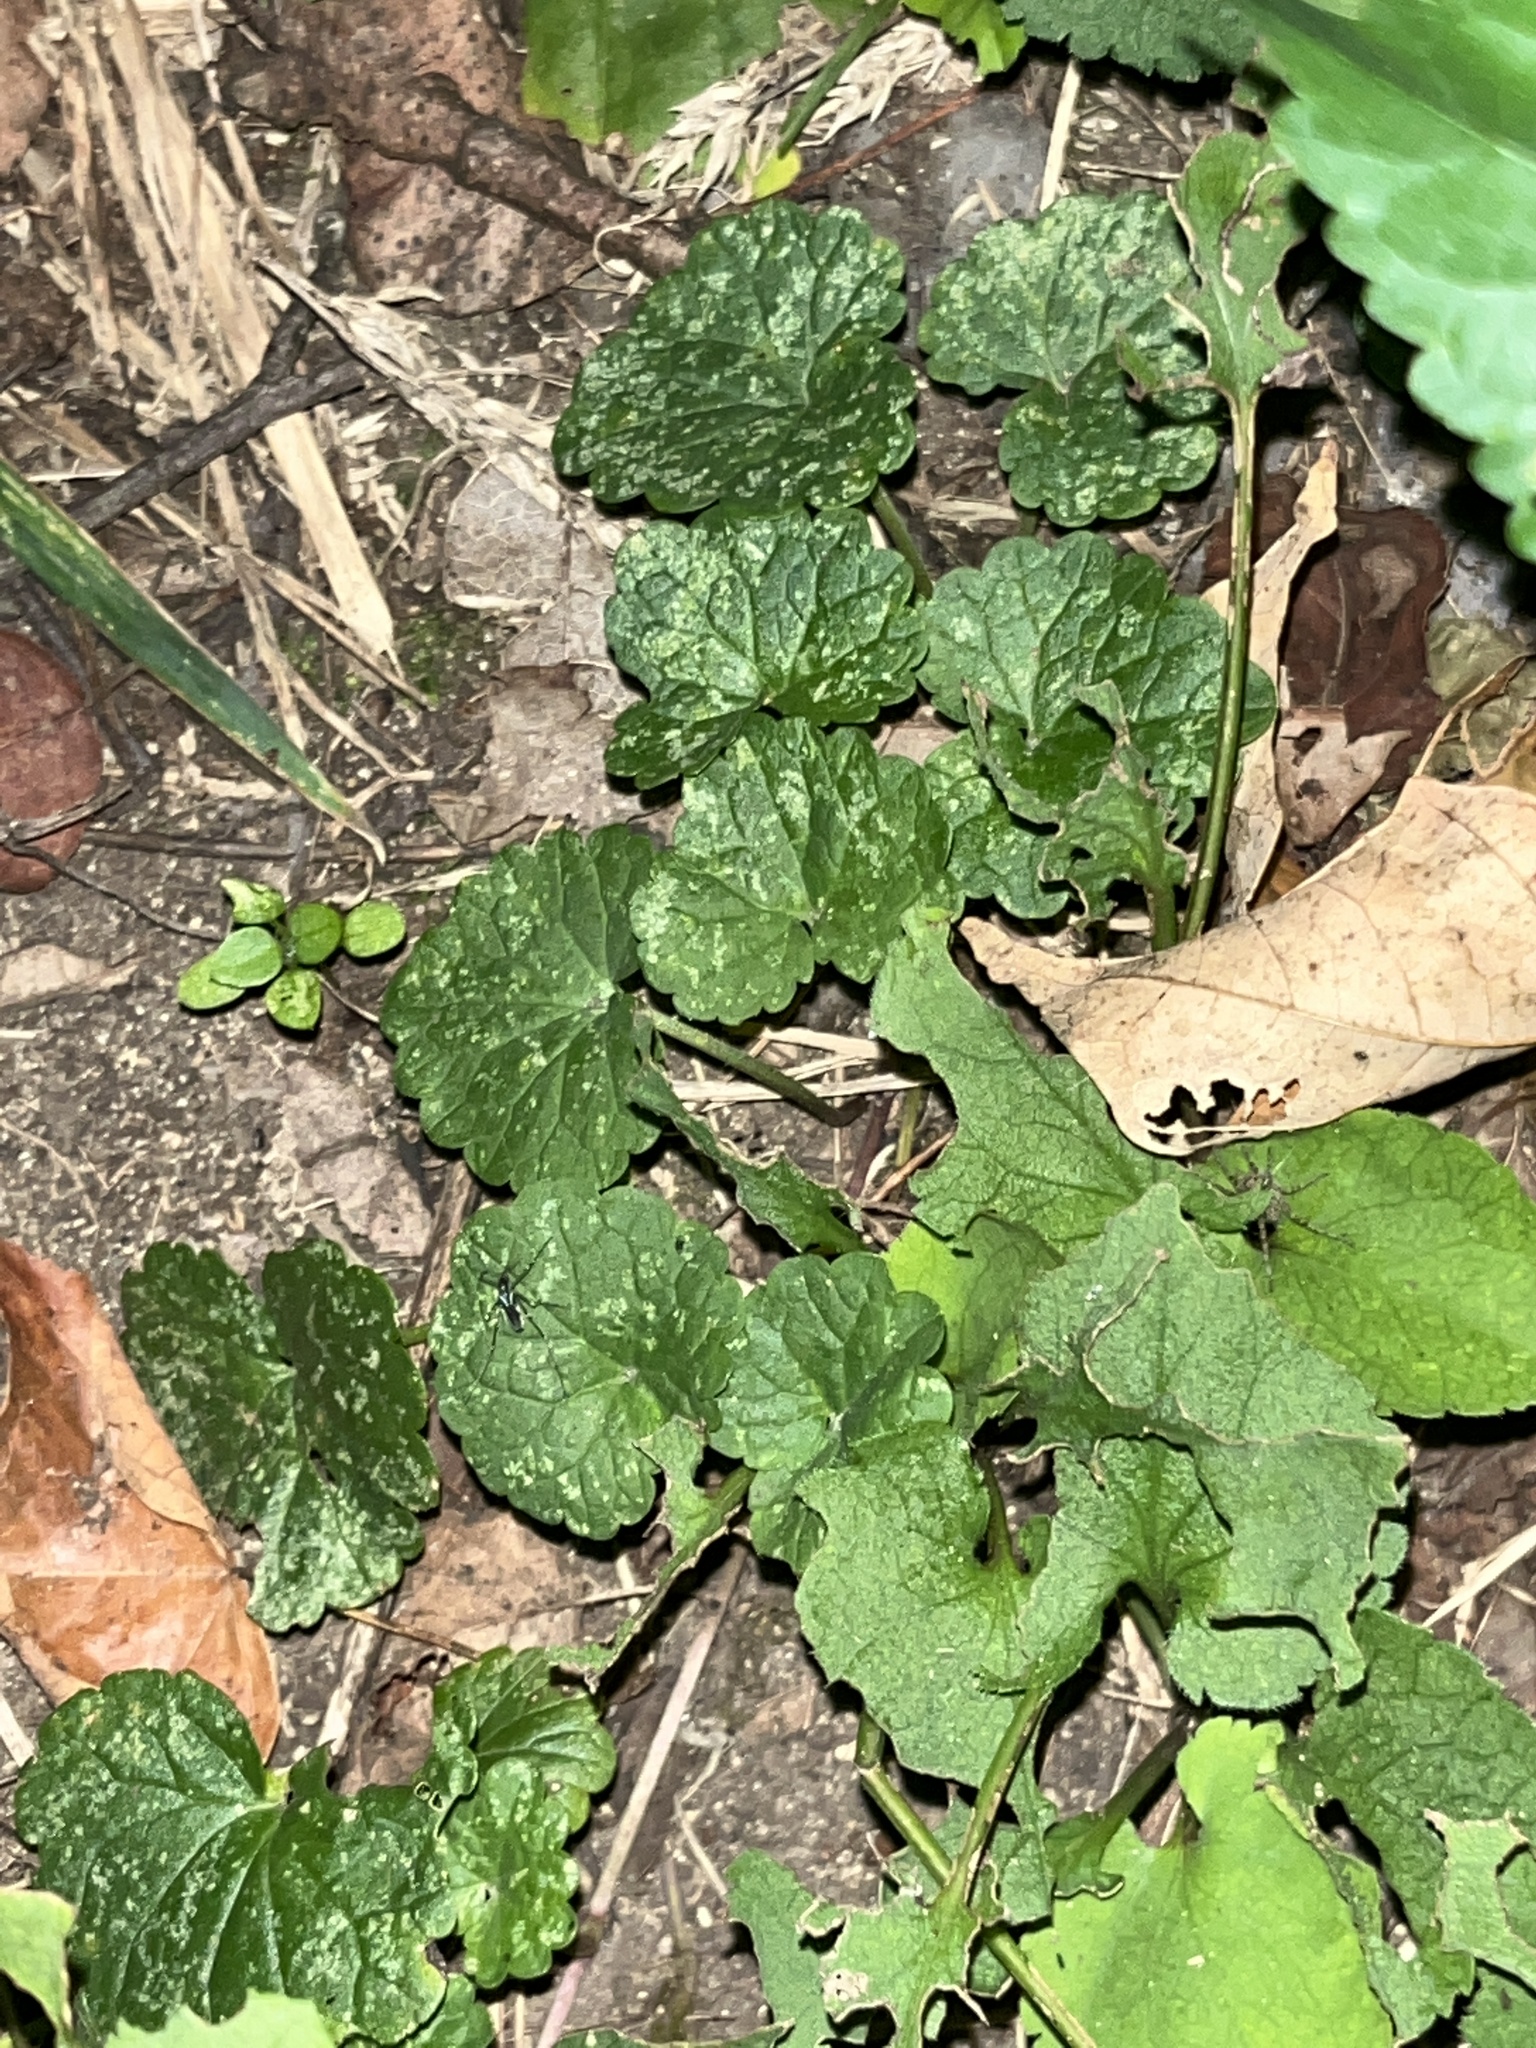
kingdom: Plantae
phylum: Tracheophyta
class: Magnoliopsida
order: Lamiales
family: Lamiaceae
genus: Glechoma
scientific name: Glechoma hederacea
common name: Ground ivy
